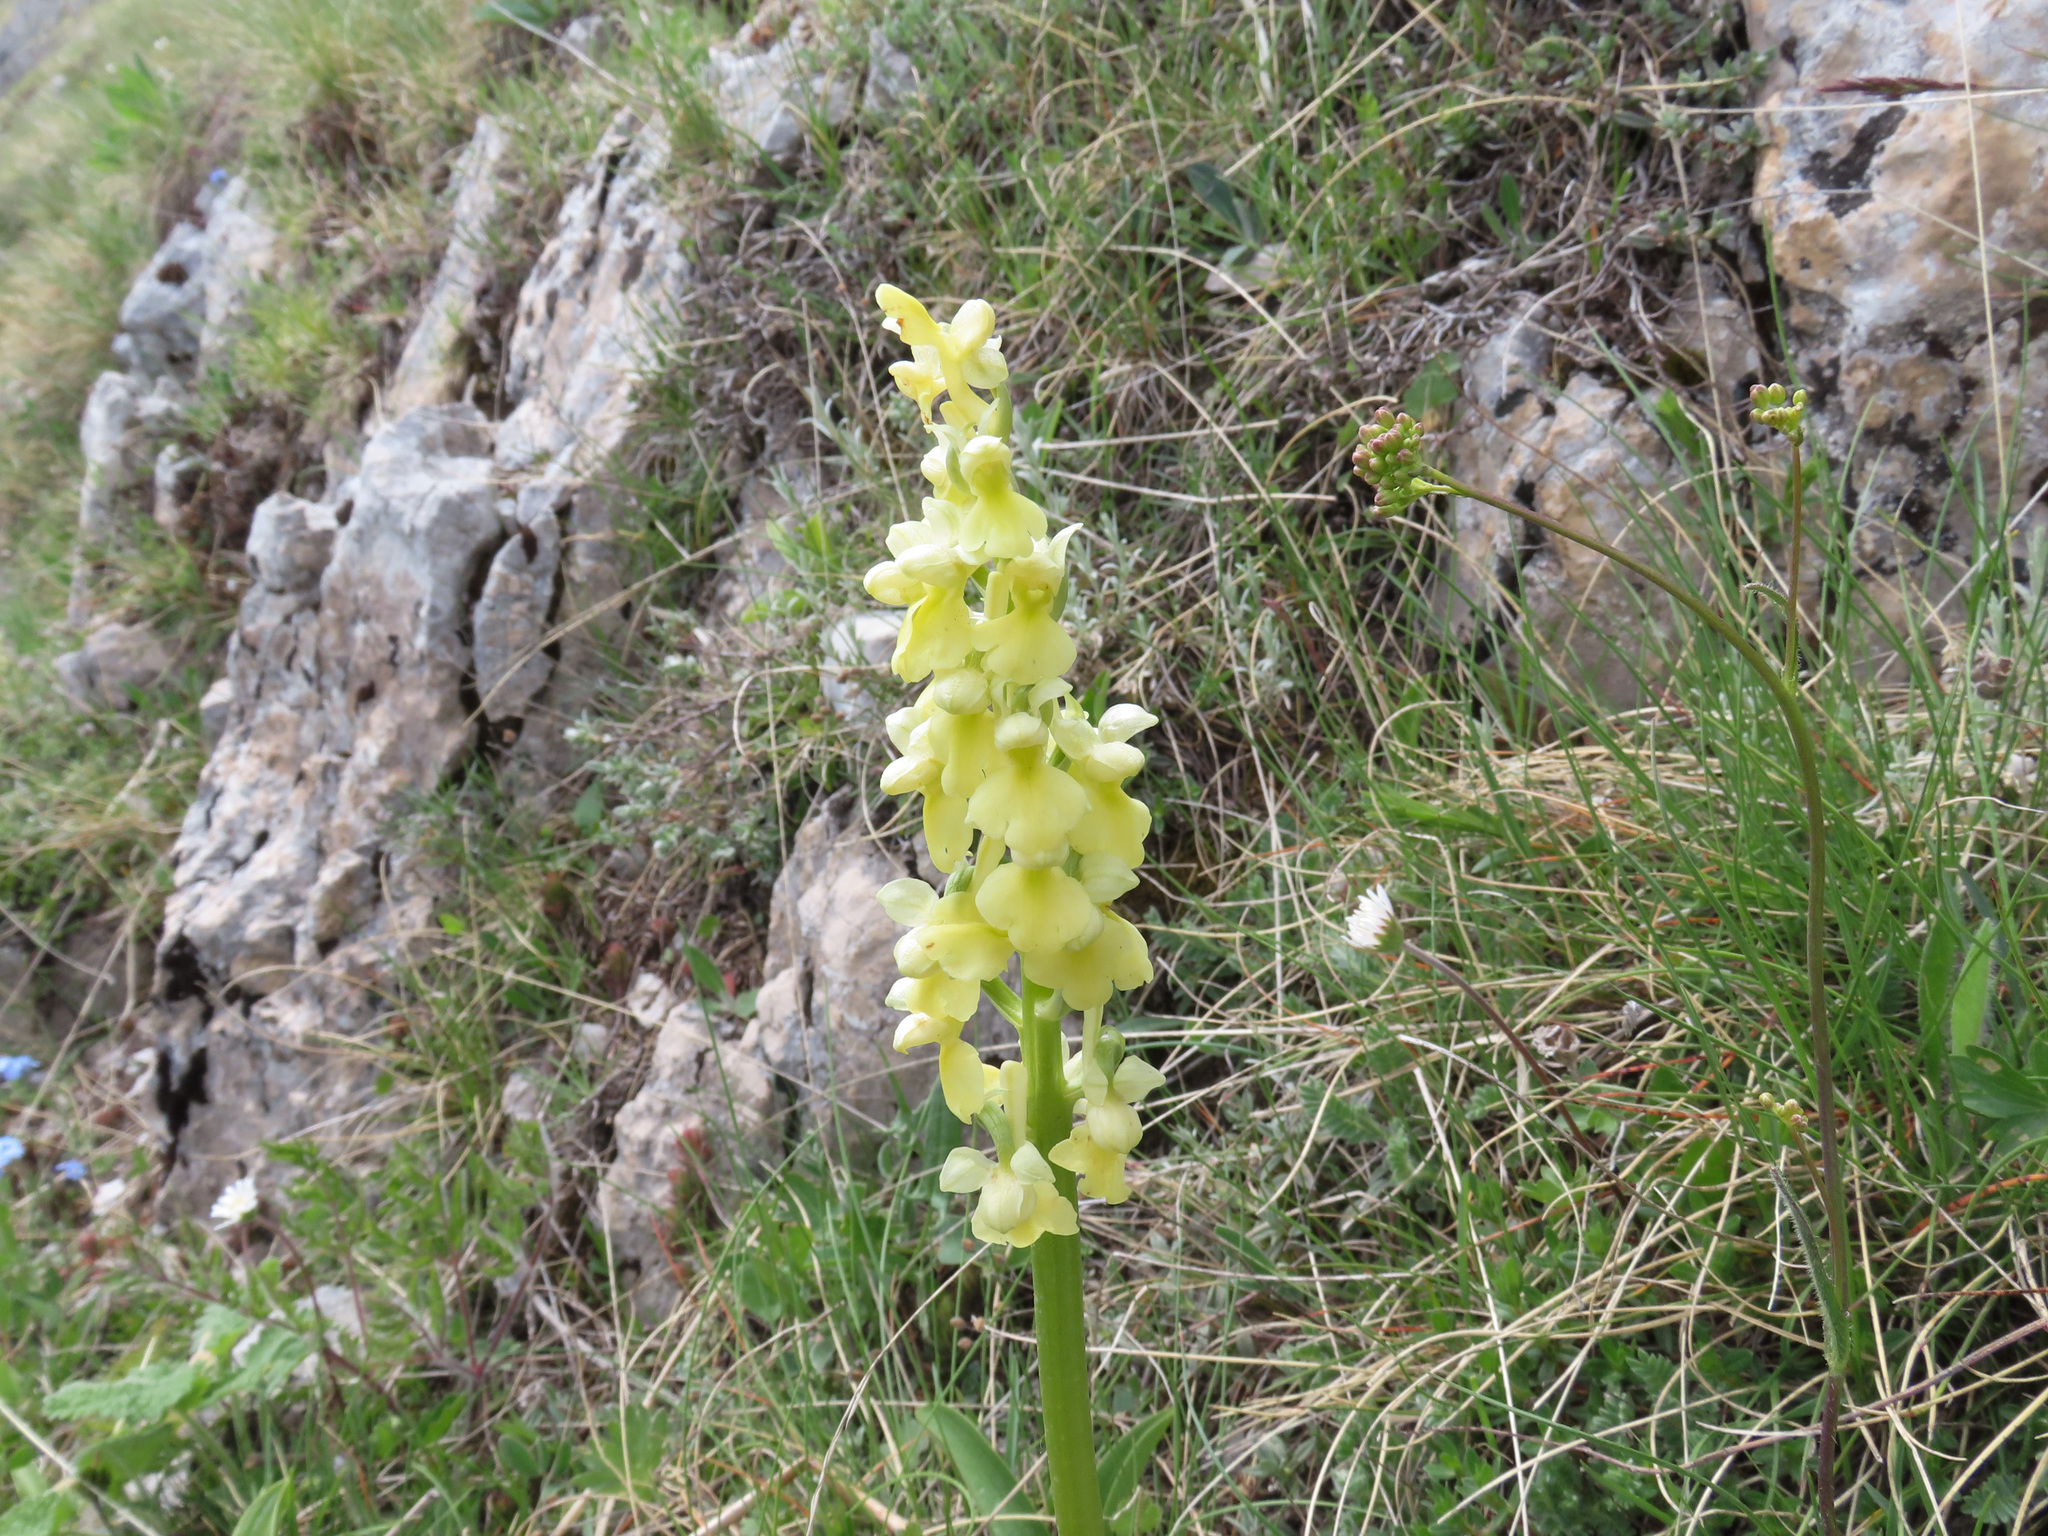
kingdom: Plantae
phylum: Tracheophyta
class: Liliopsida
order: Asparagales
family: Orchidaceae
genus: Orchis
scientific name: Orchis pallens
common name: Pale-flowered orchid
